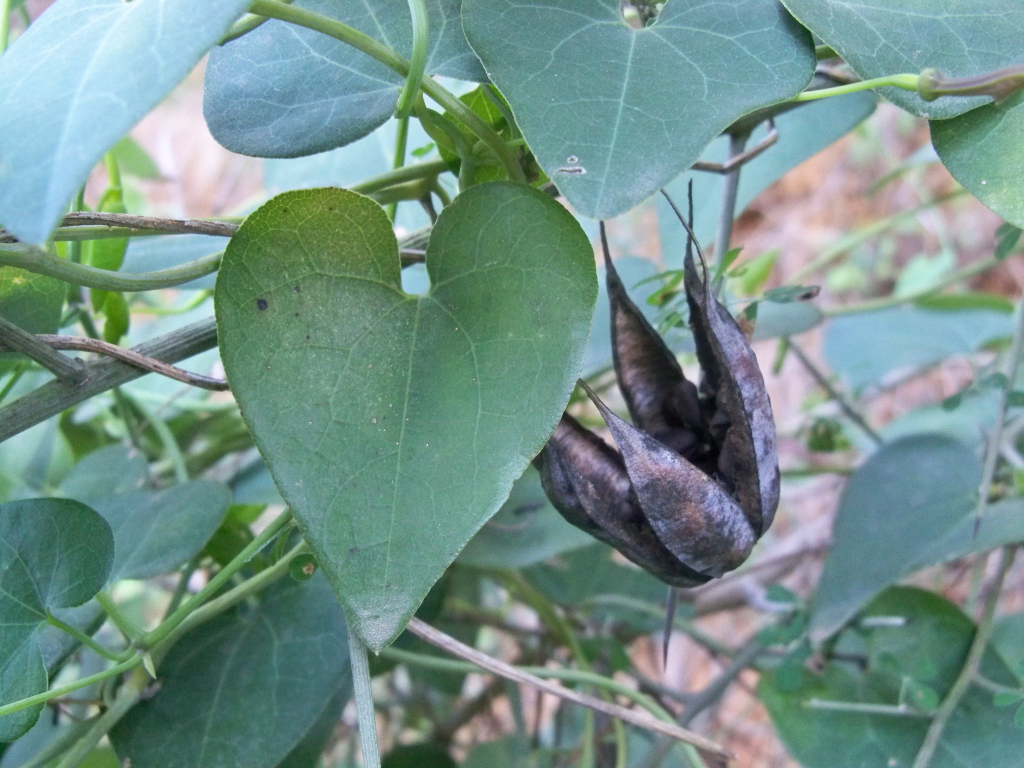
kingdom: Plantae
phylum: Tracheophyta
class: Magnoliopsida
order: Piperales
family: Aristolochiaceae
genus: Aristolochia
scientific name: Aristolochia baetica
